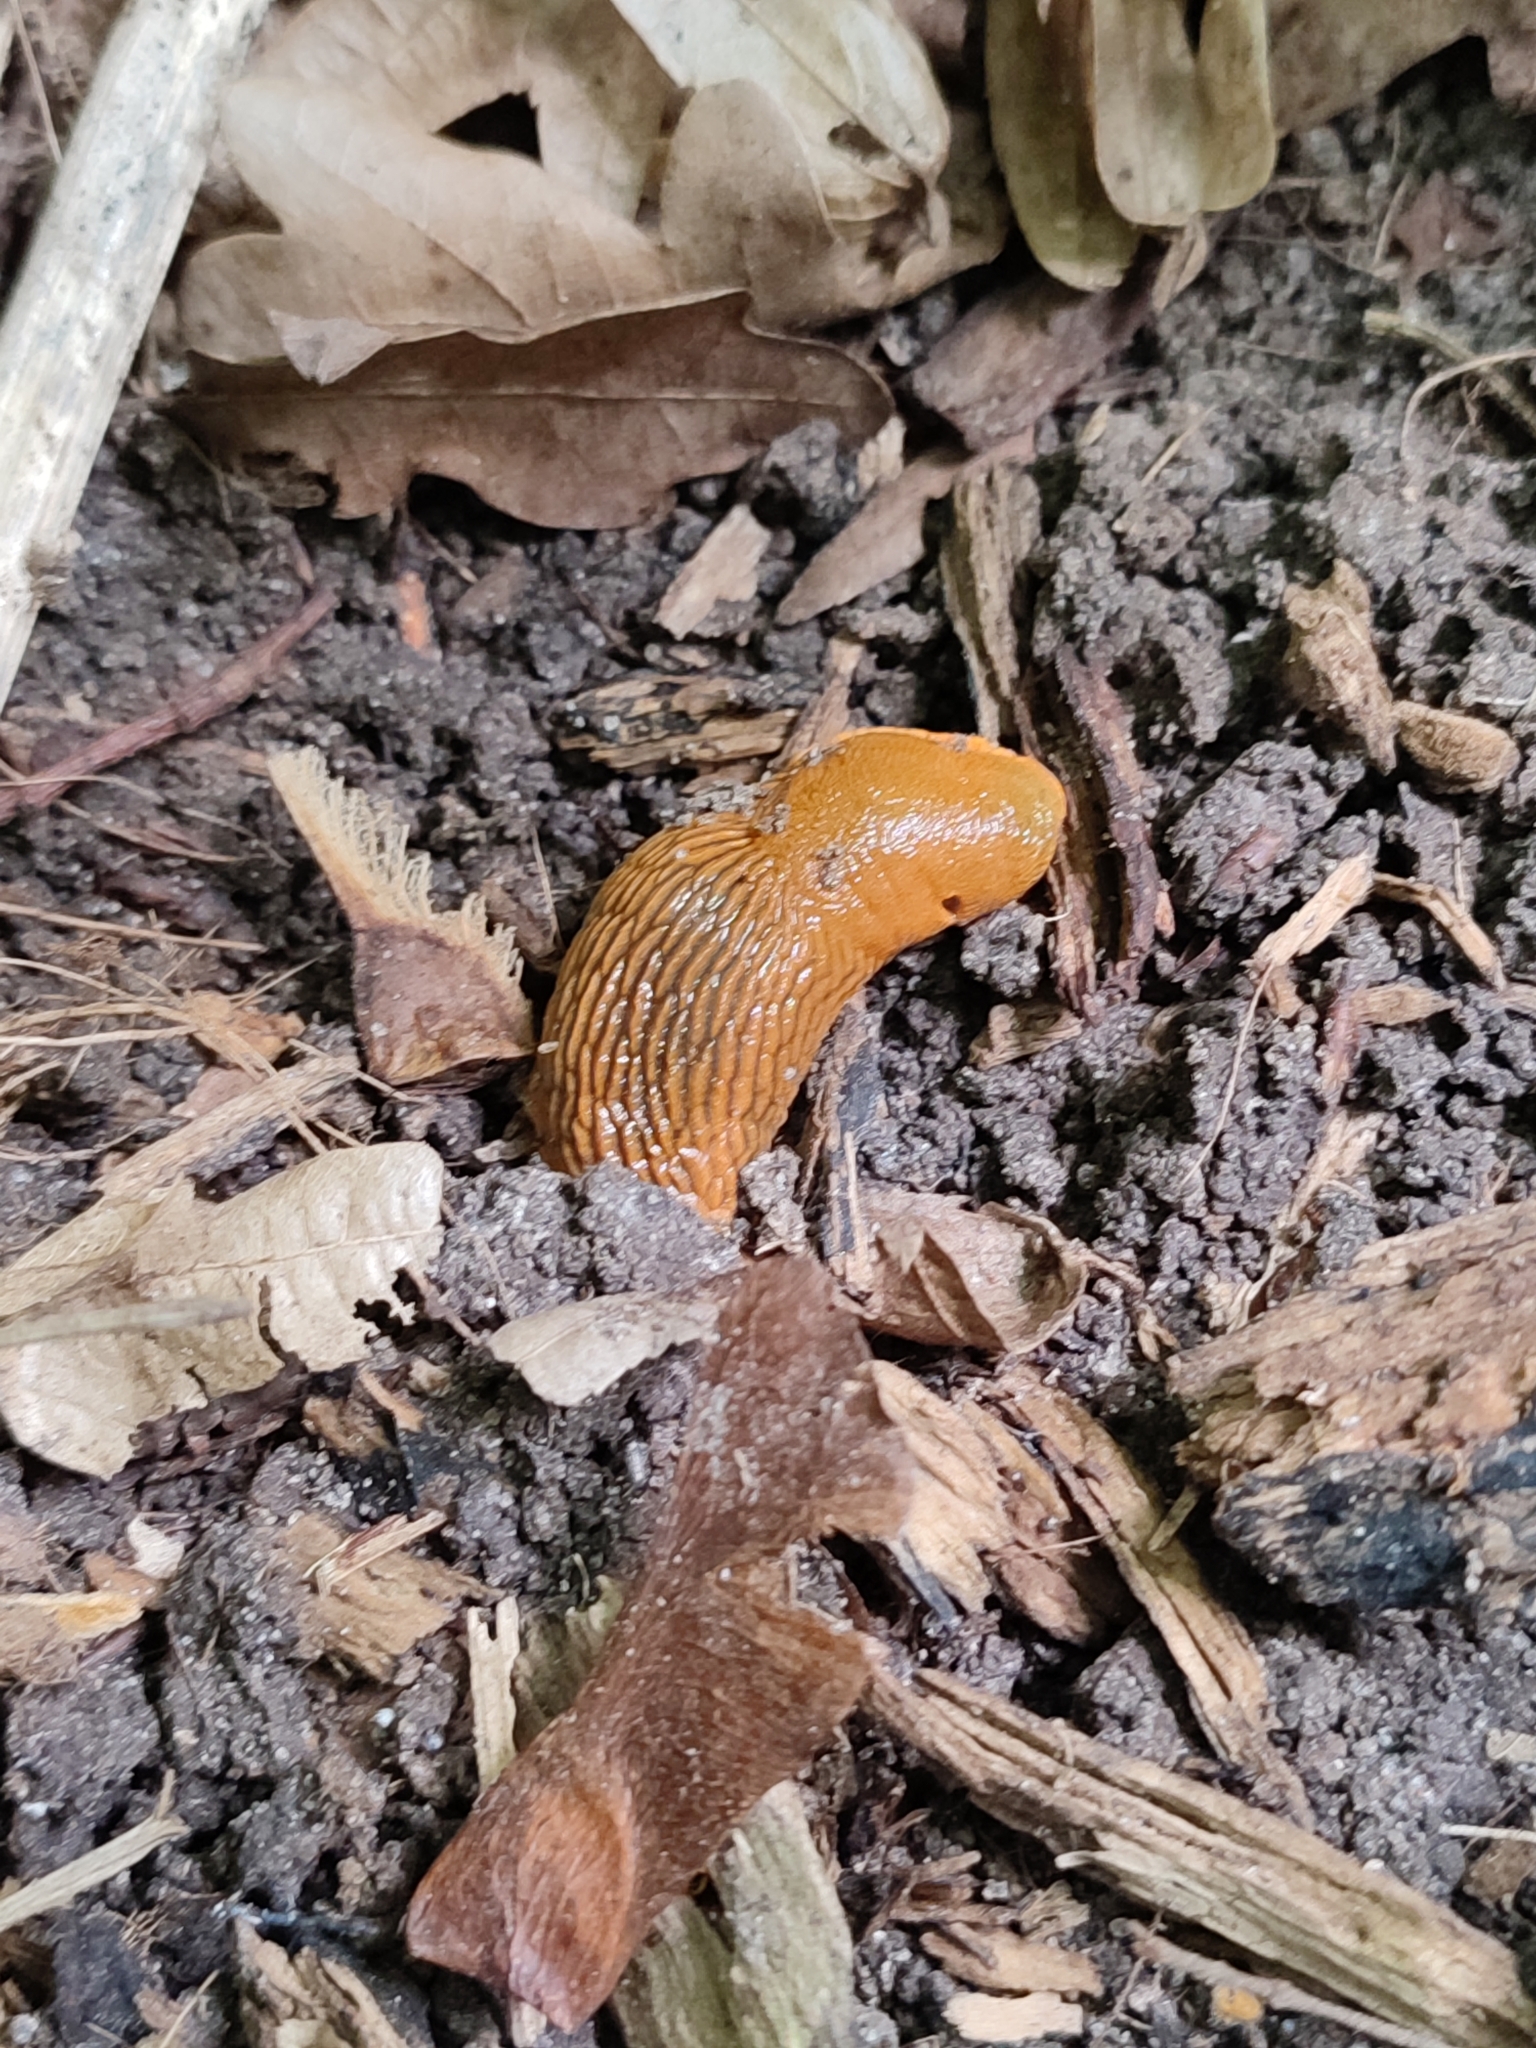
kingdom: Animalia
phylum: Mollusca
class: Gastropoda
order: Stylommatophora
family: Arionidae
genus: Arion
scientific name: Arion vulgaris
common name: Lusitanian slug
